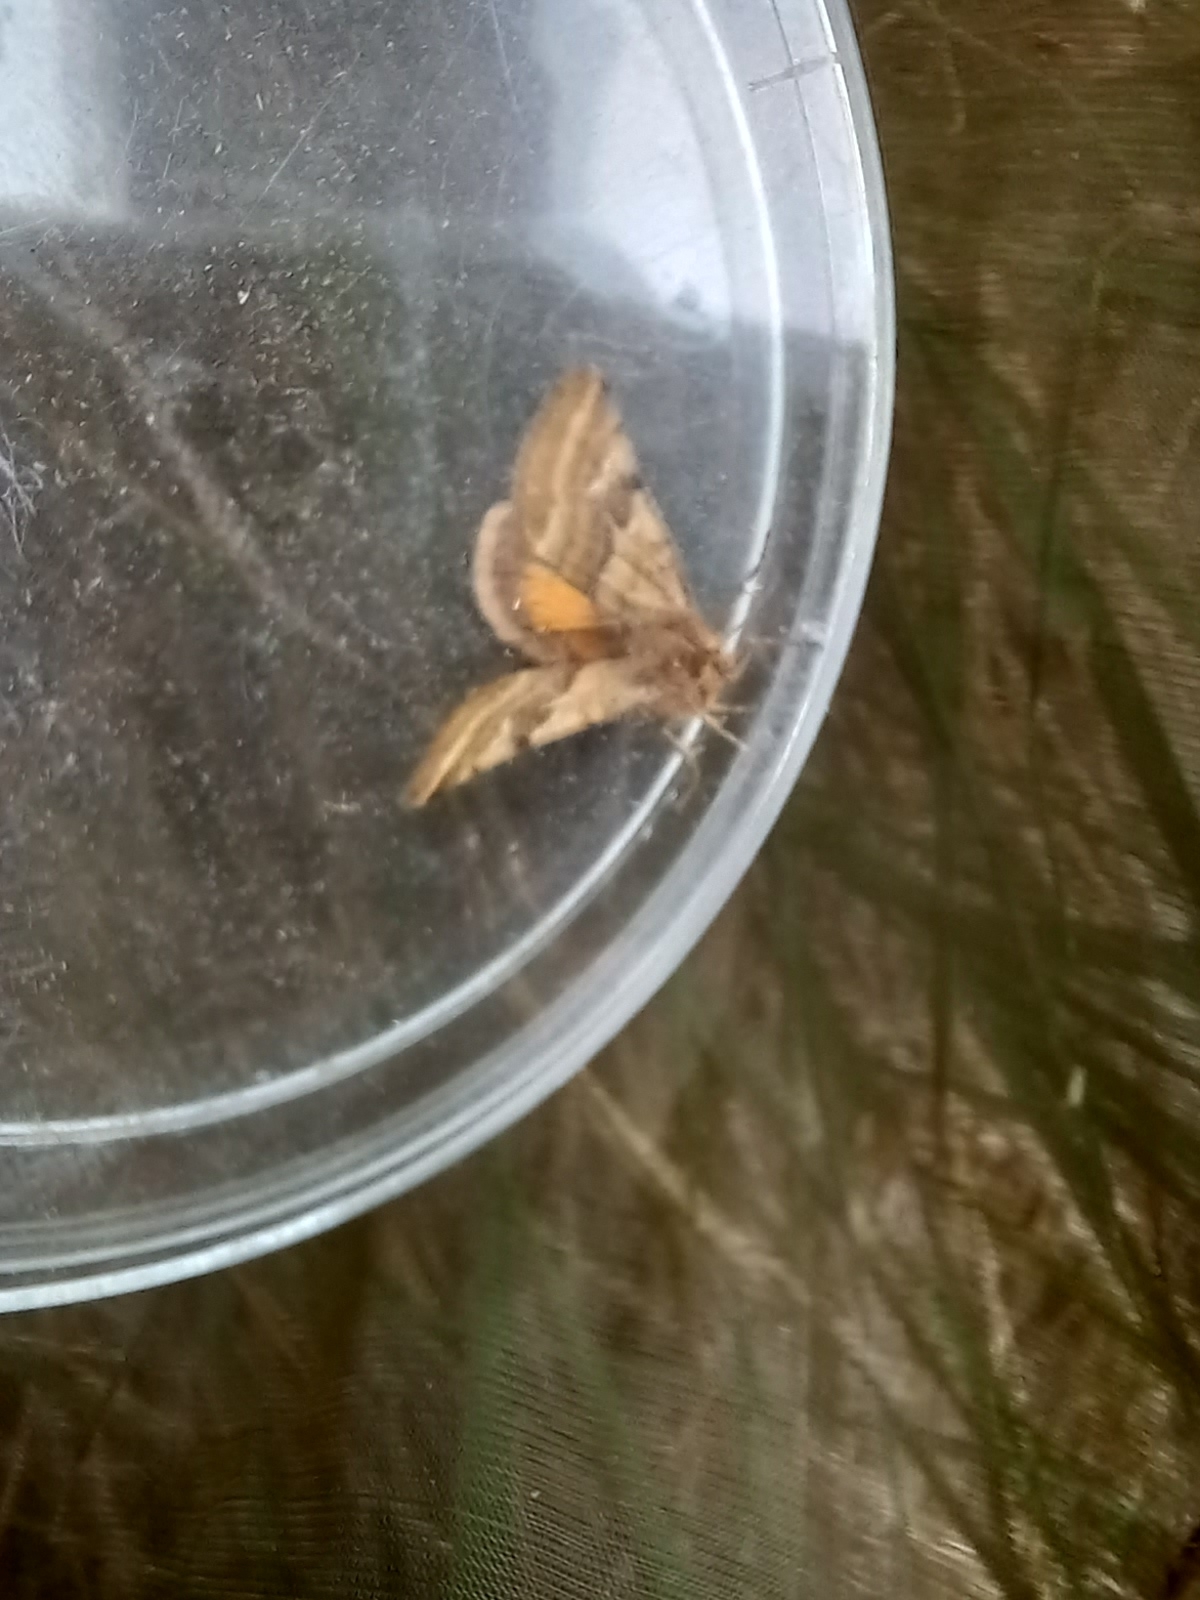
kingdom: Animalia
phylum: Arthropoda
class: Insecta
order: Lepidoptera
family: Noctuidae
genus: Synthymia
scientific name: Synthymia fixa
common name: Goldwing
